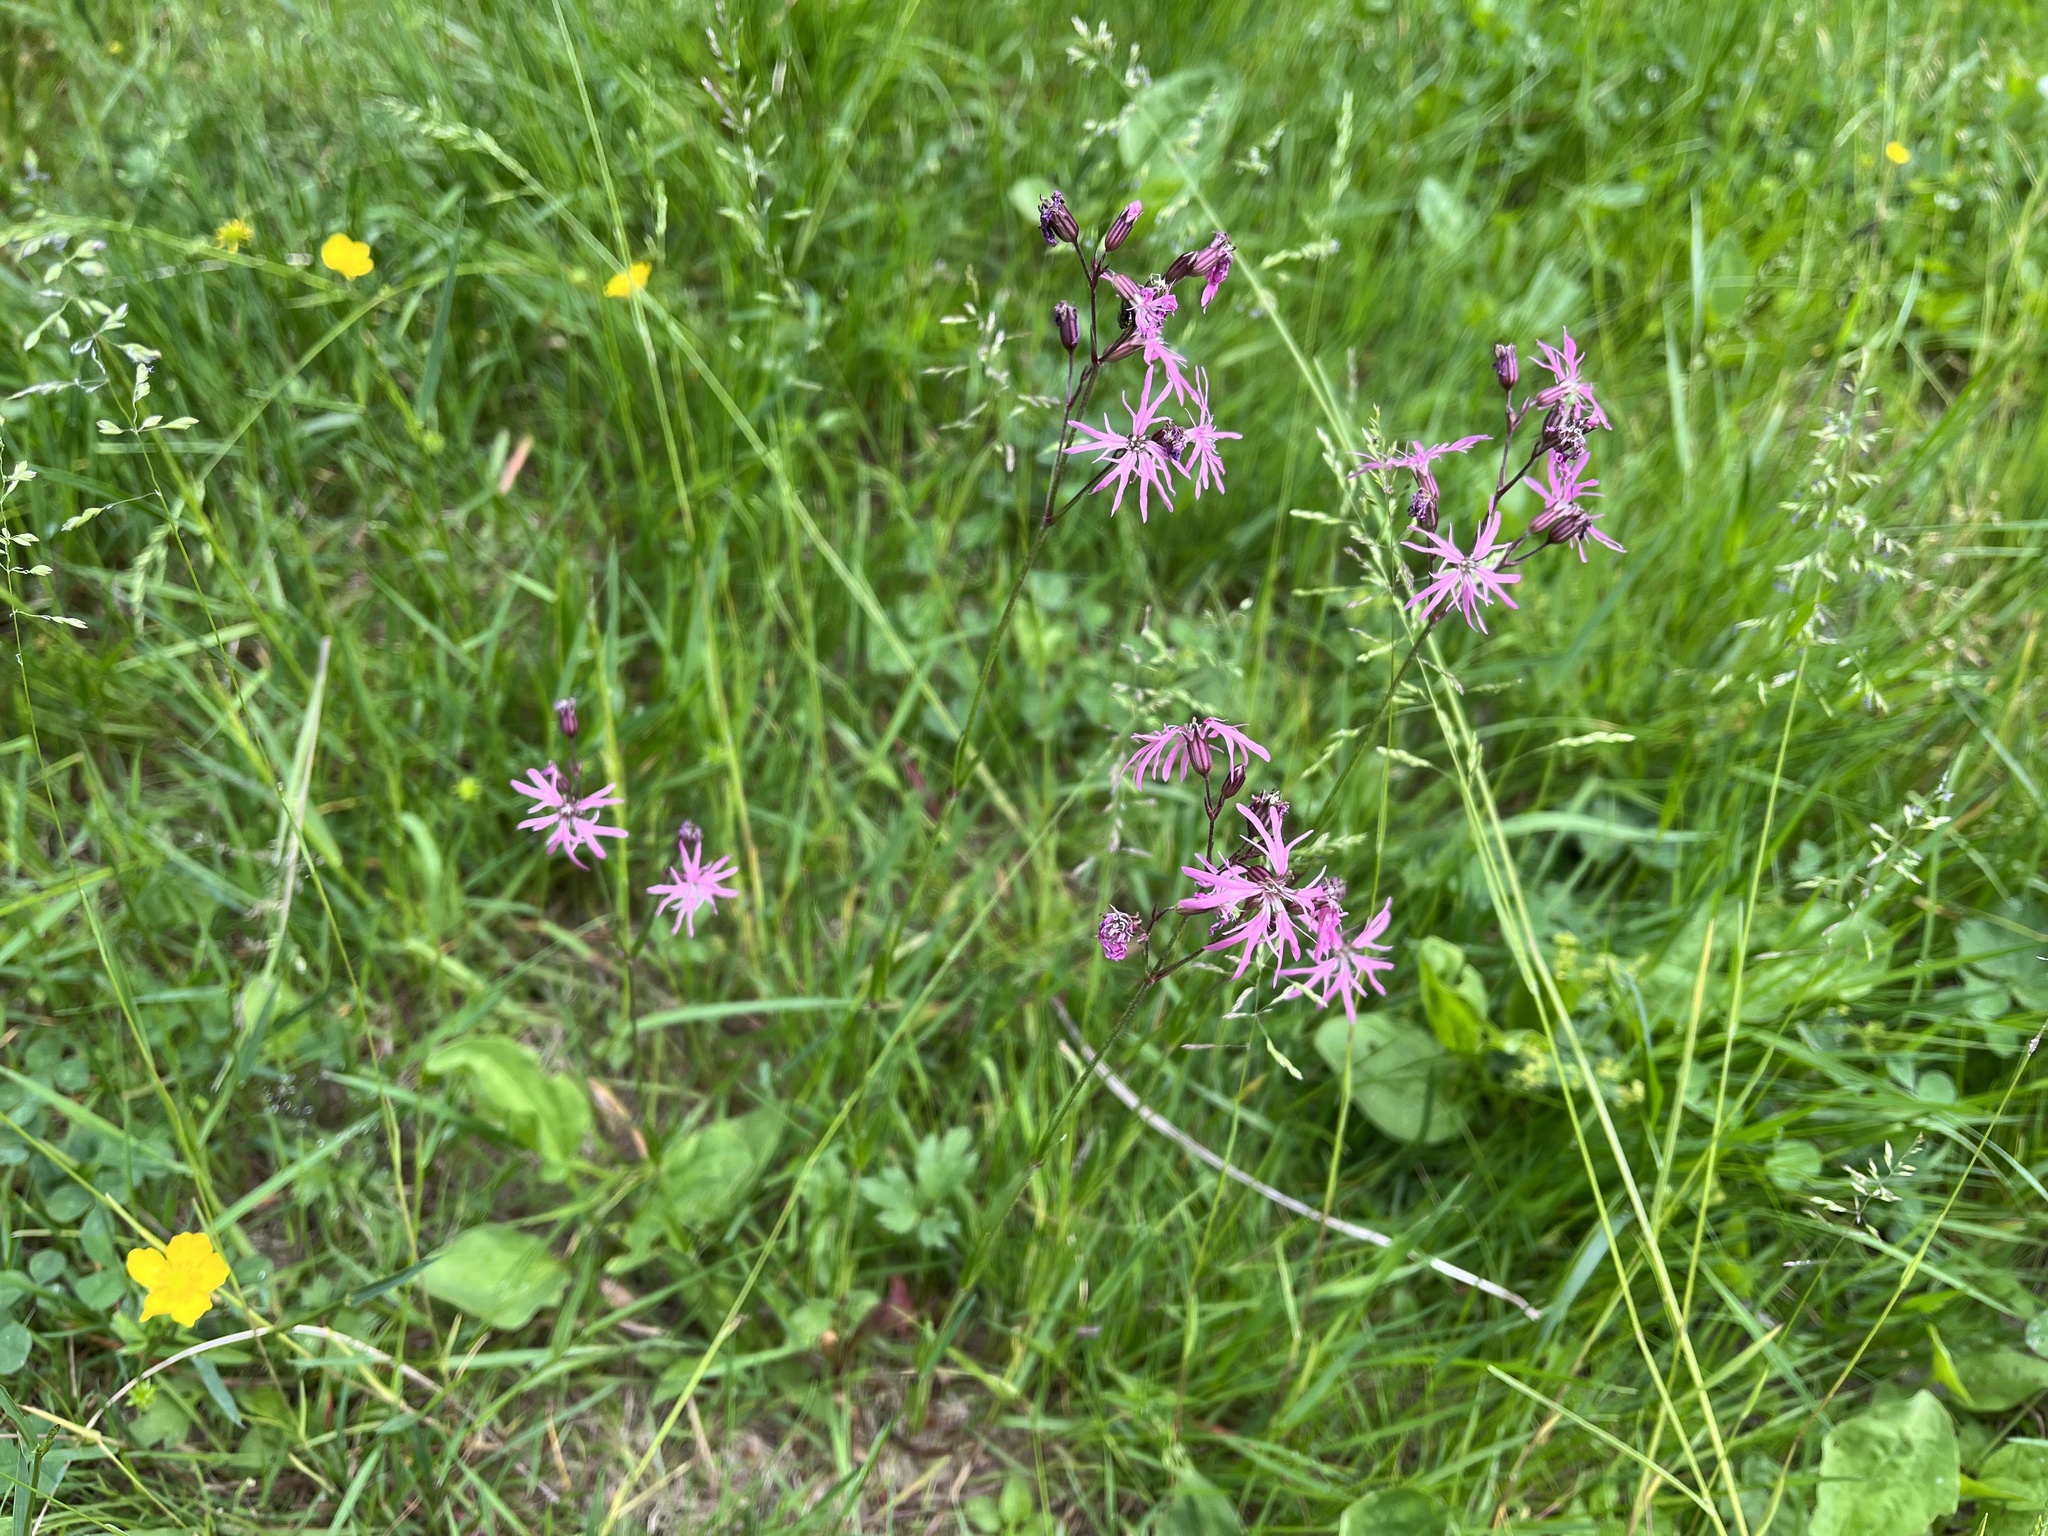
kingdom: Plantae
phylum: Tracheophyta
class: Magnoliopsida
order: Caryophyllales
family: Caryophyllaceae
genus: Silene
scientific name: Silene flos-cuculi
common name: Ragged-robin
